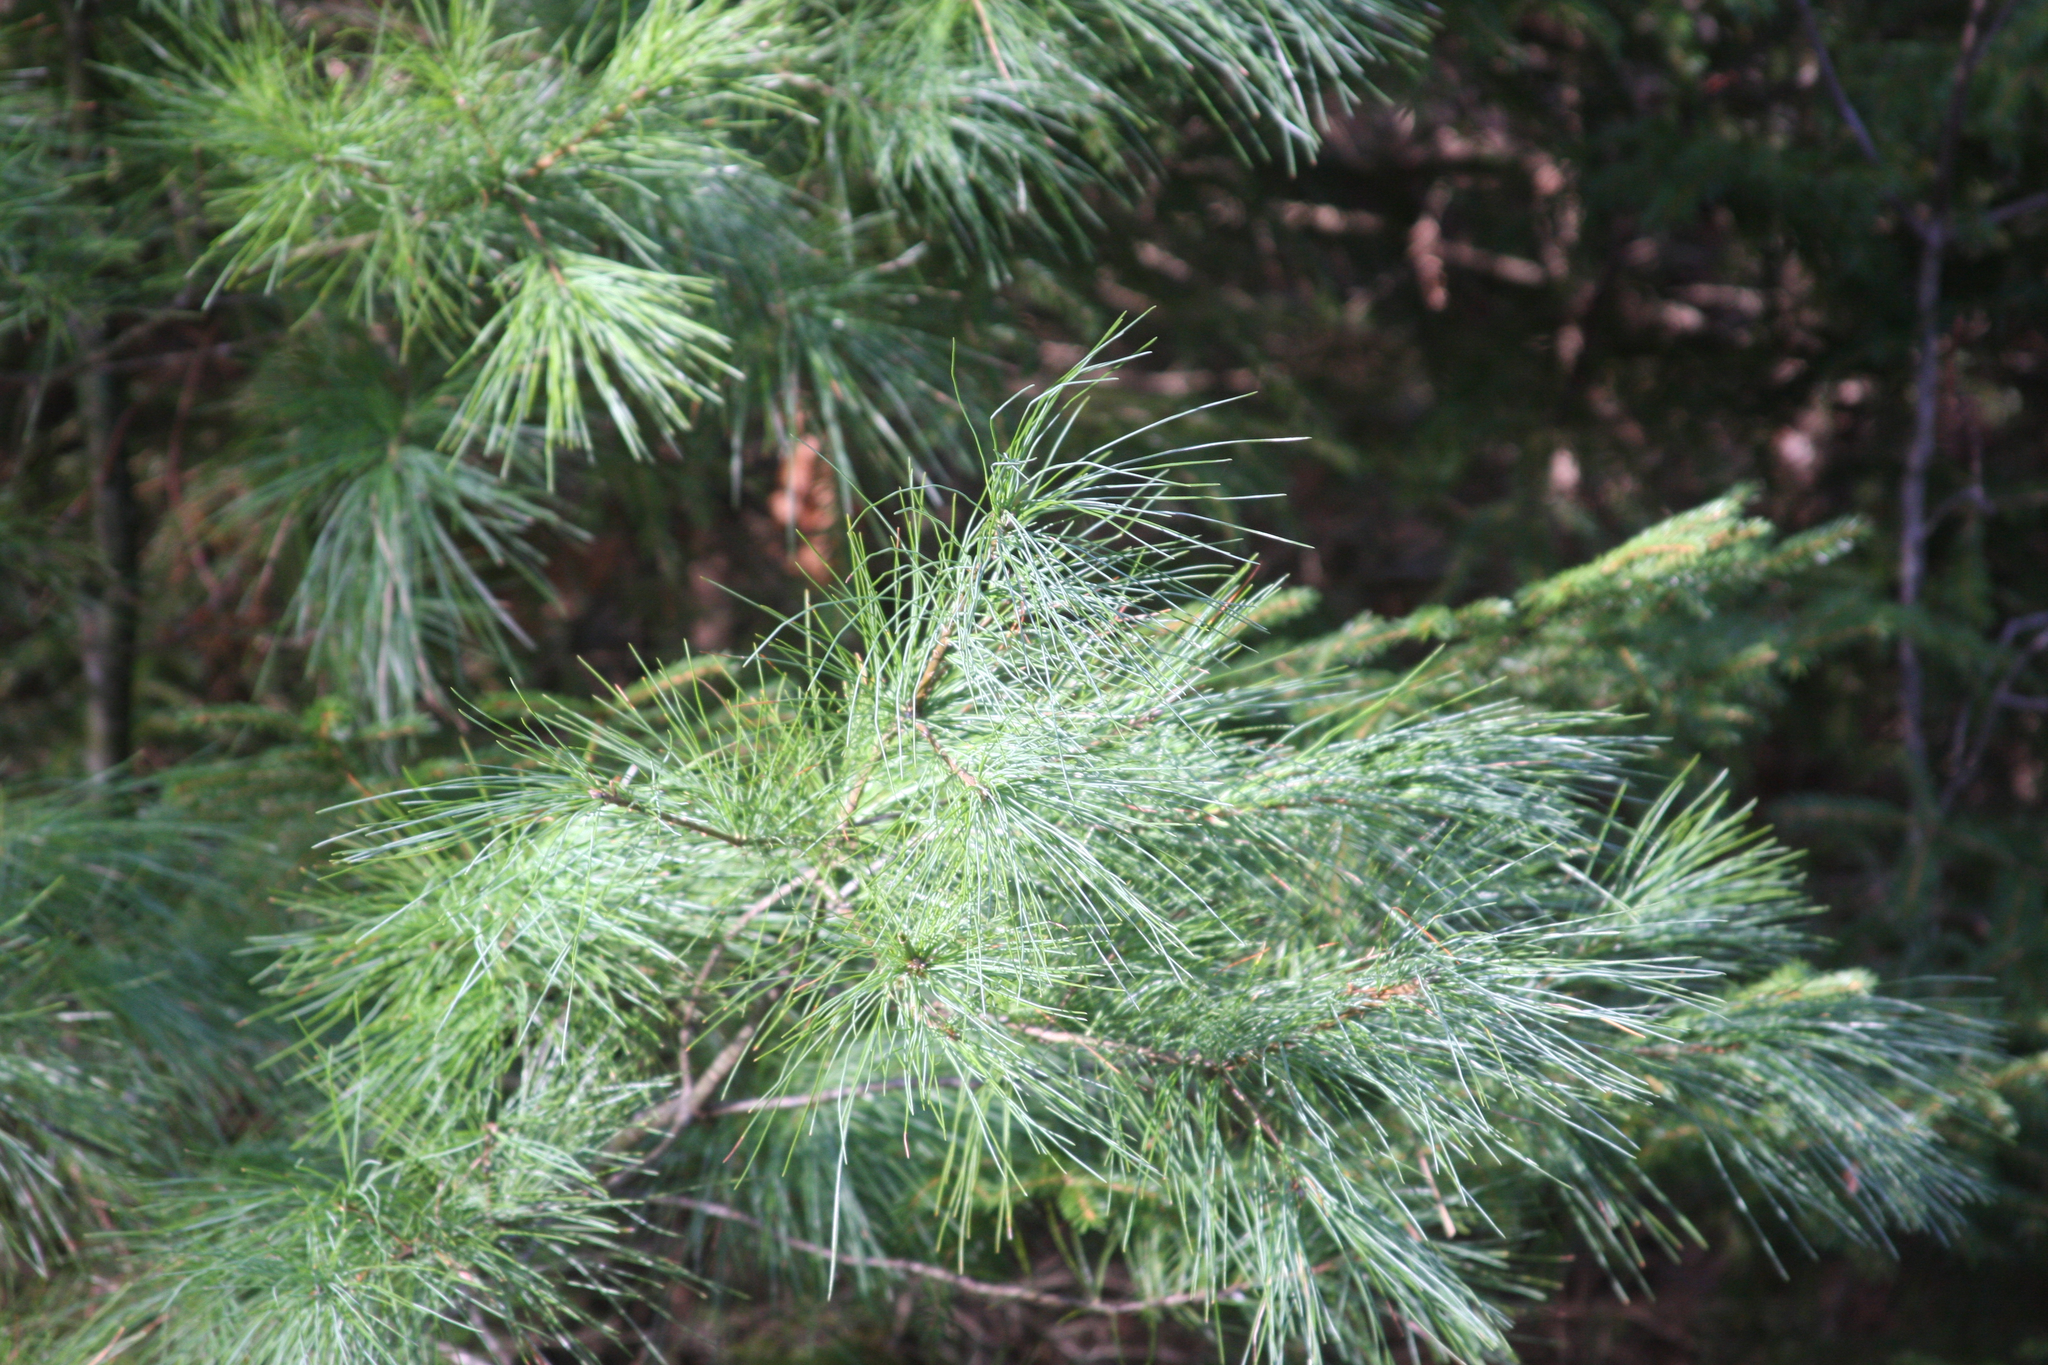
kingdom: Plantae
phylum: Tracheophyta
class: Pinopsida
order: Pinales
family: Pinaceae
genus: Pinus
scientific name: Pinus strobus
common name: Weymouth pine
